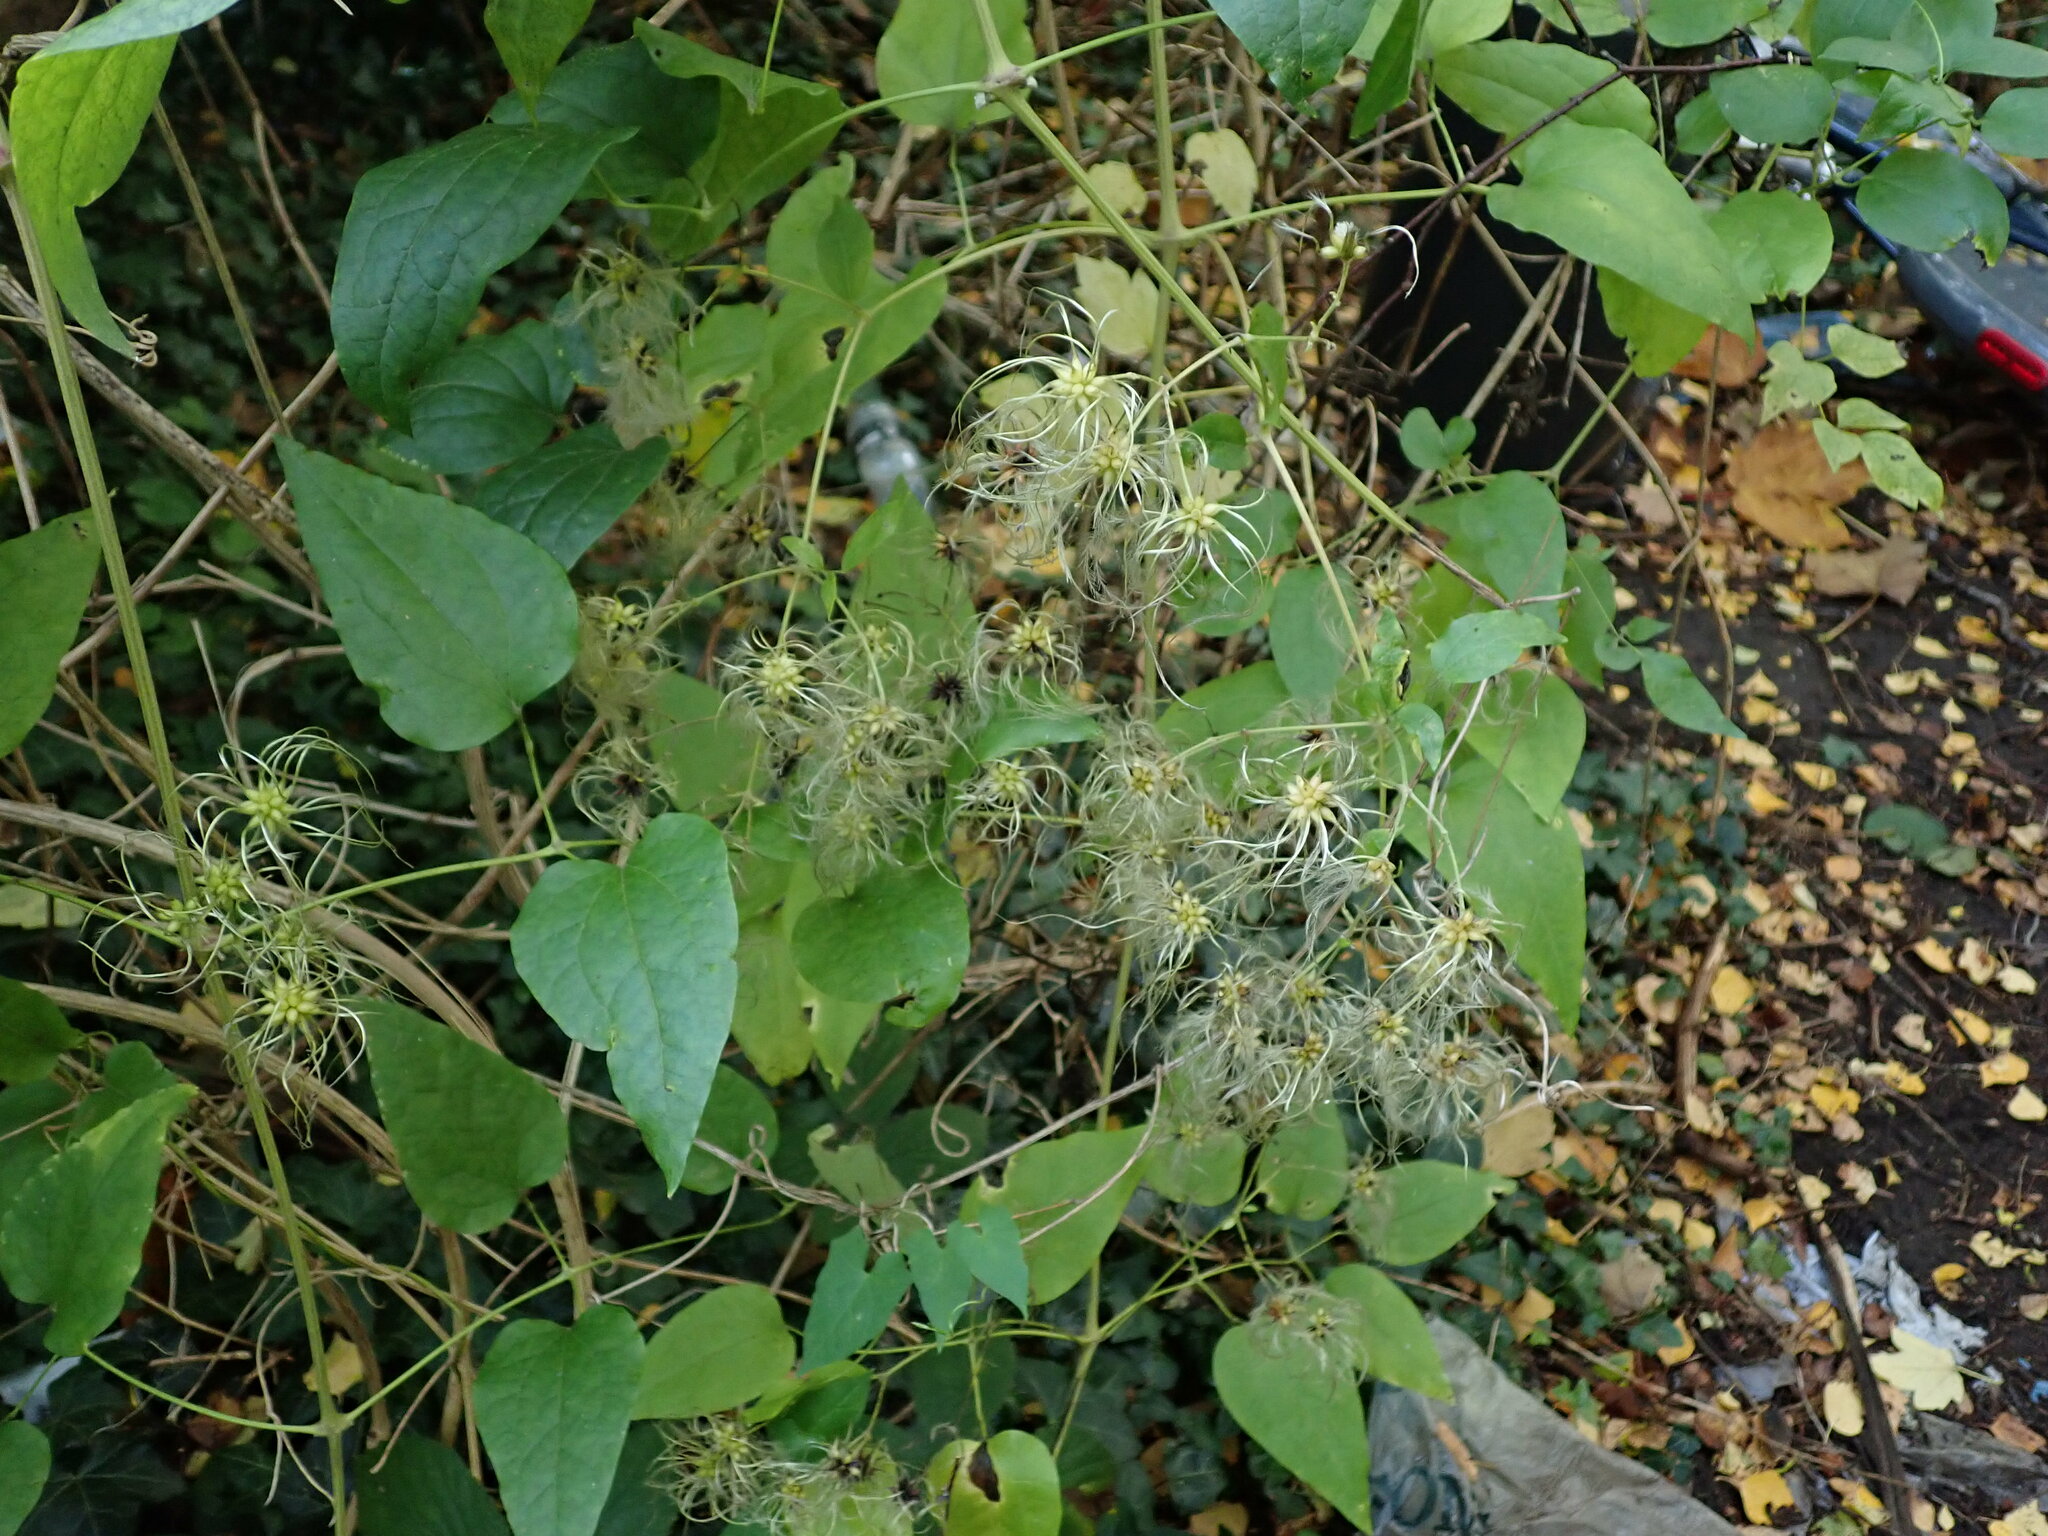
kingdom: Plantae
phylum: Tracheophyta
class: Magnoliopsida
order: Ranunculales
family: Ranunculaceae
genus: Clematis
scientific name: Clematis vitalba
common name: Evergreen clematis
